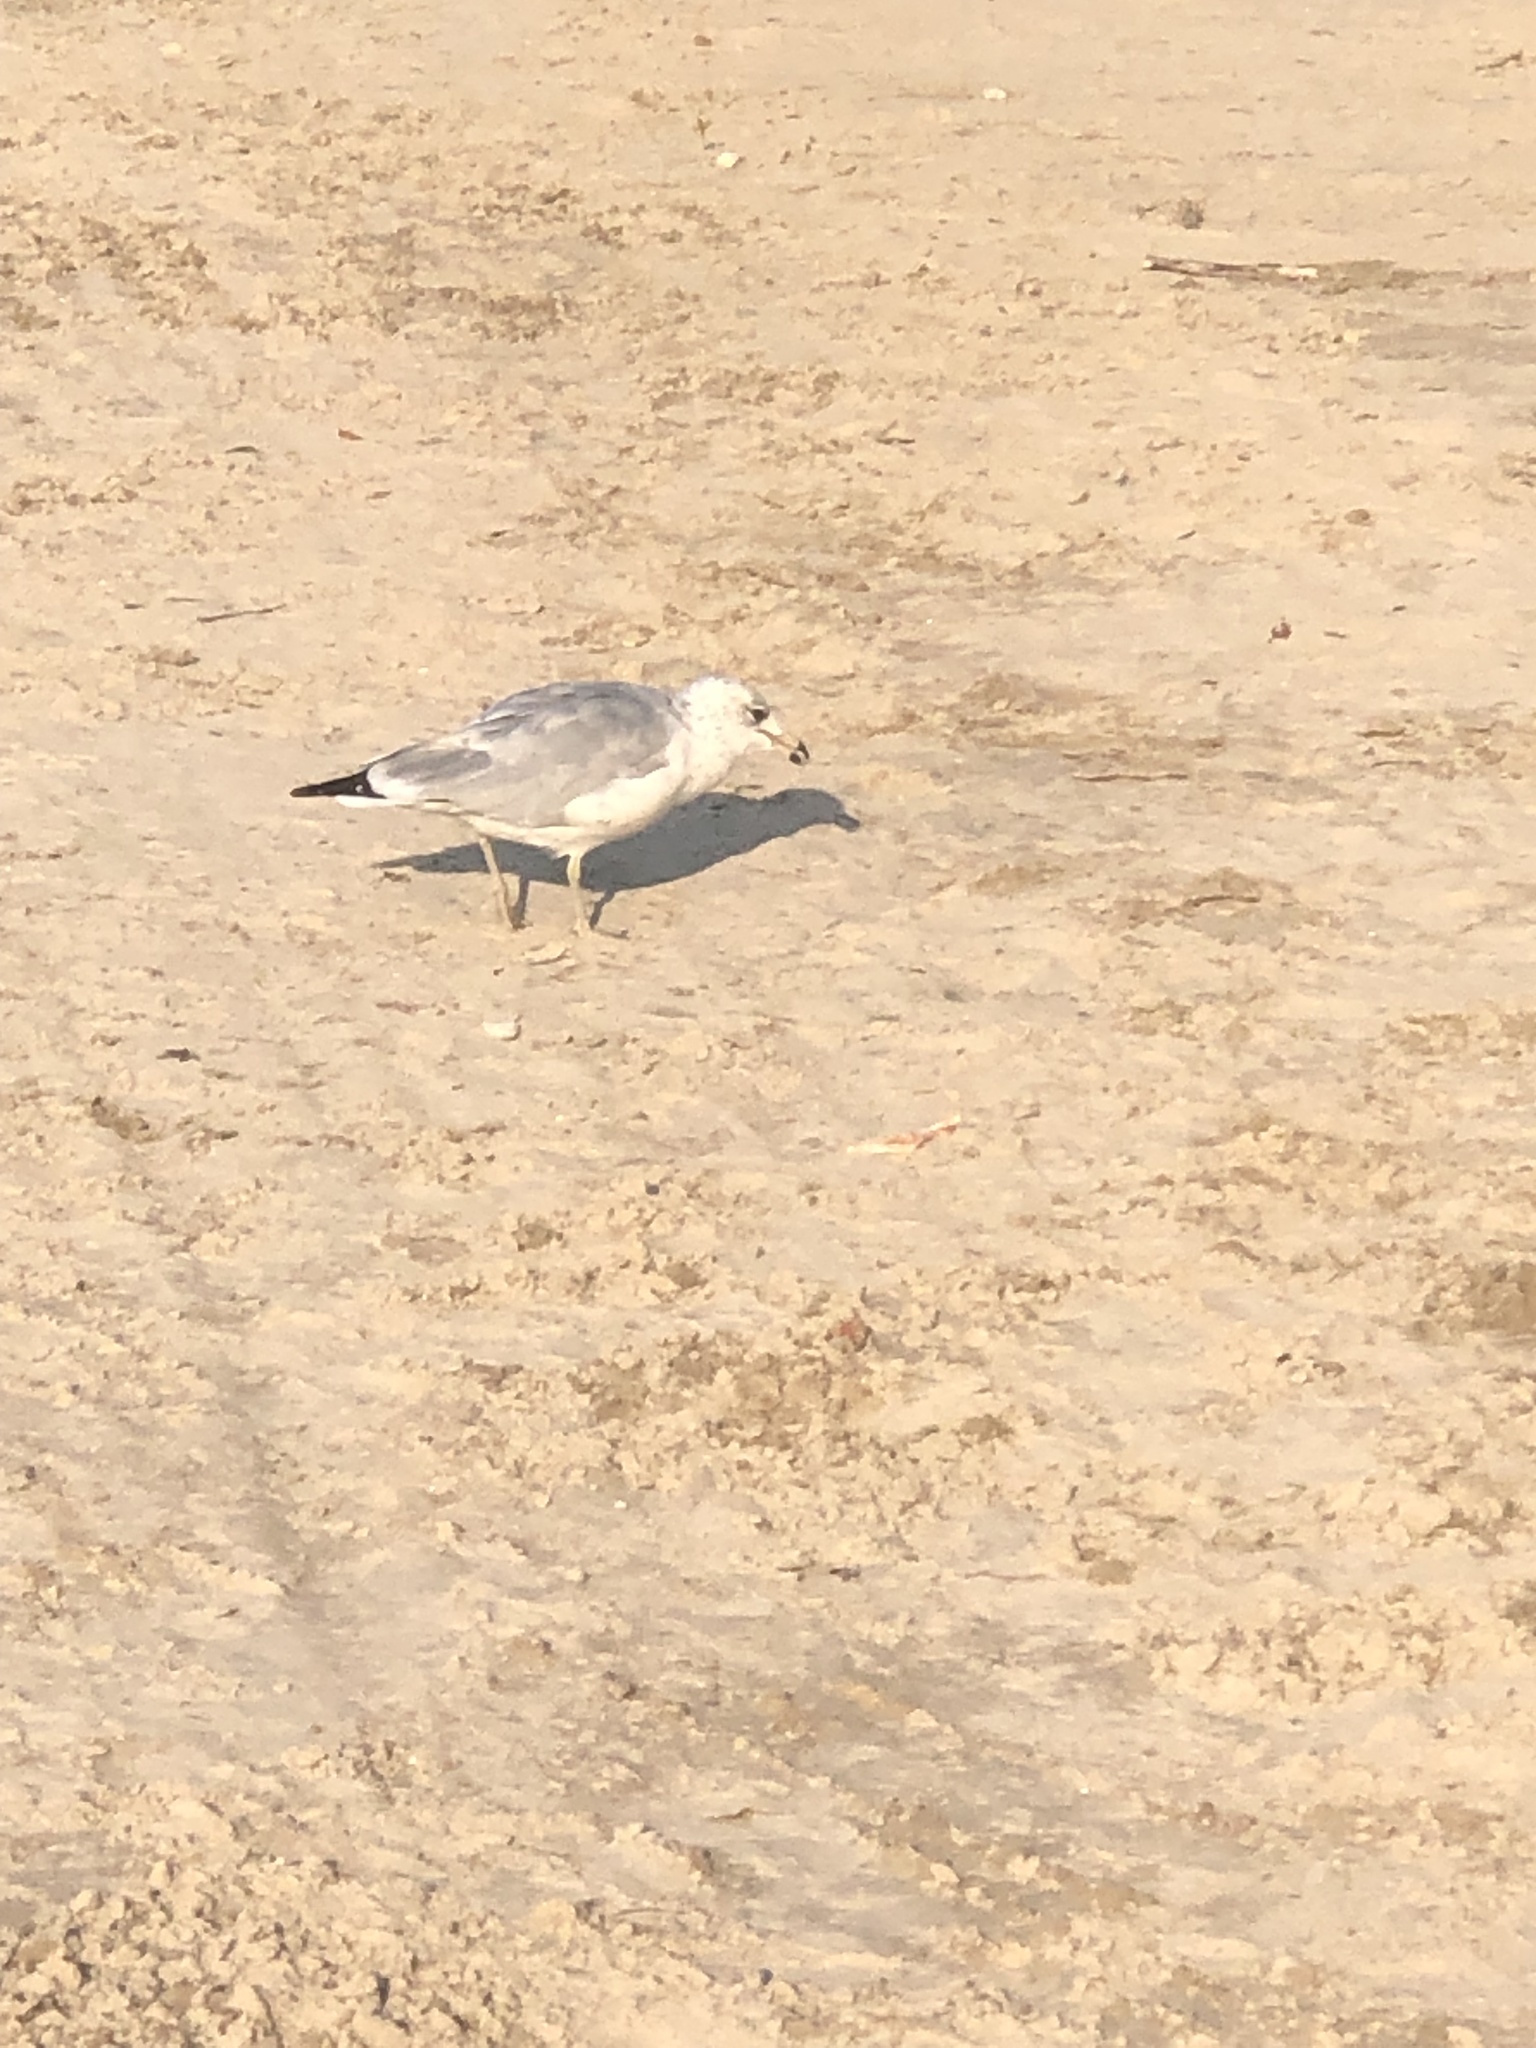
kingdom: Animalia
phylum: Chordata
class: Aves
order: Charadriiformes
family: Laridae
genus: Larus
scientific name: Larus delawarensis
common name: Ring-billed gull
